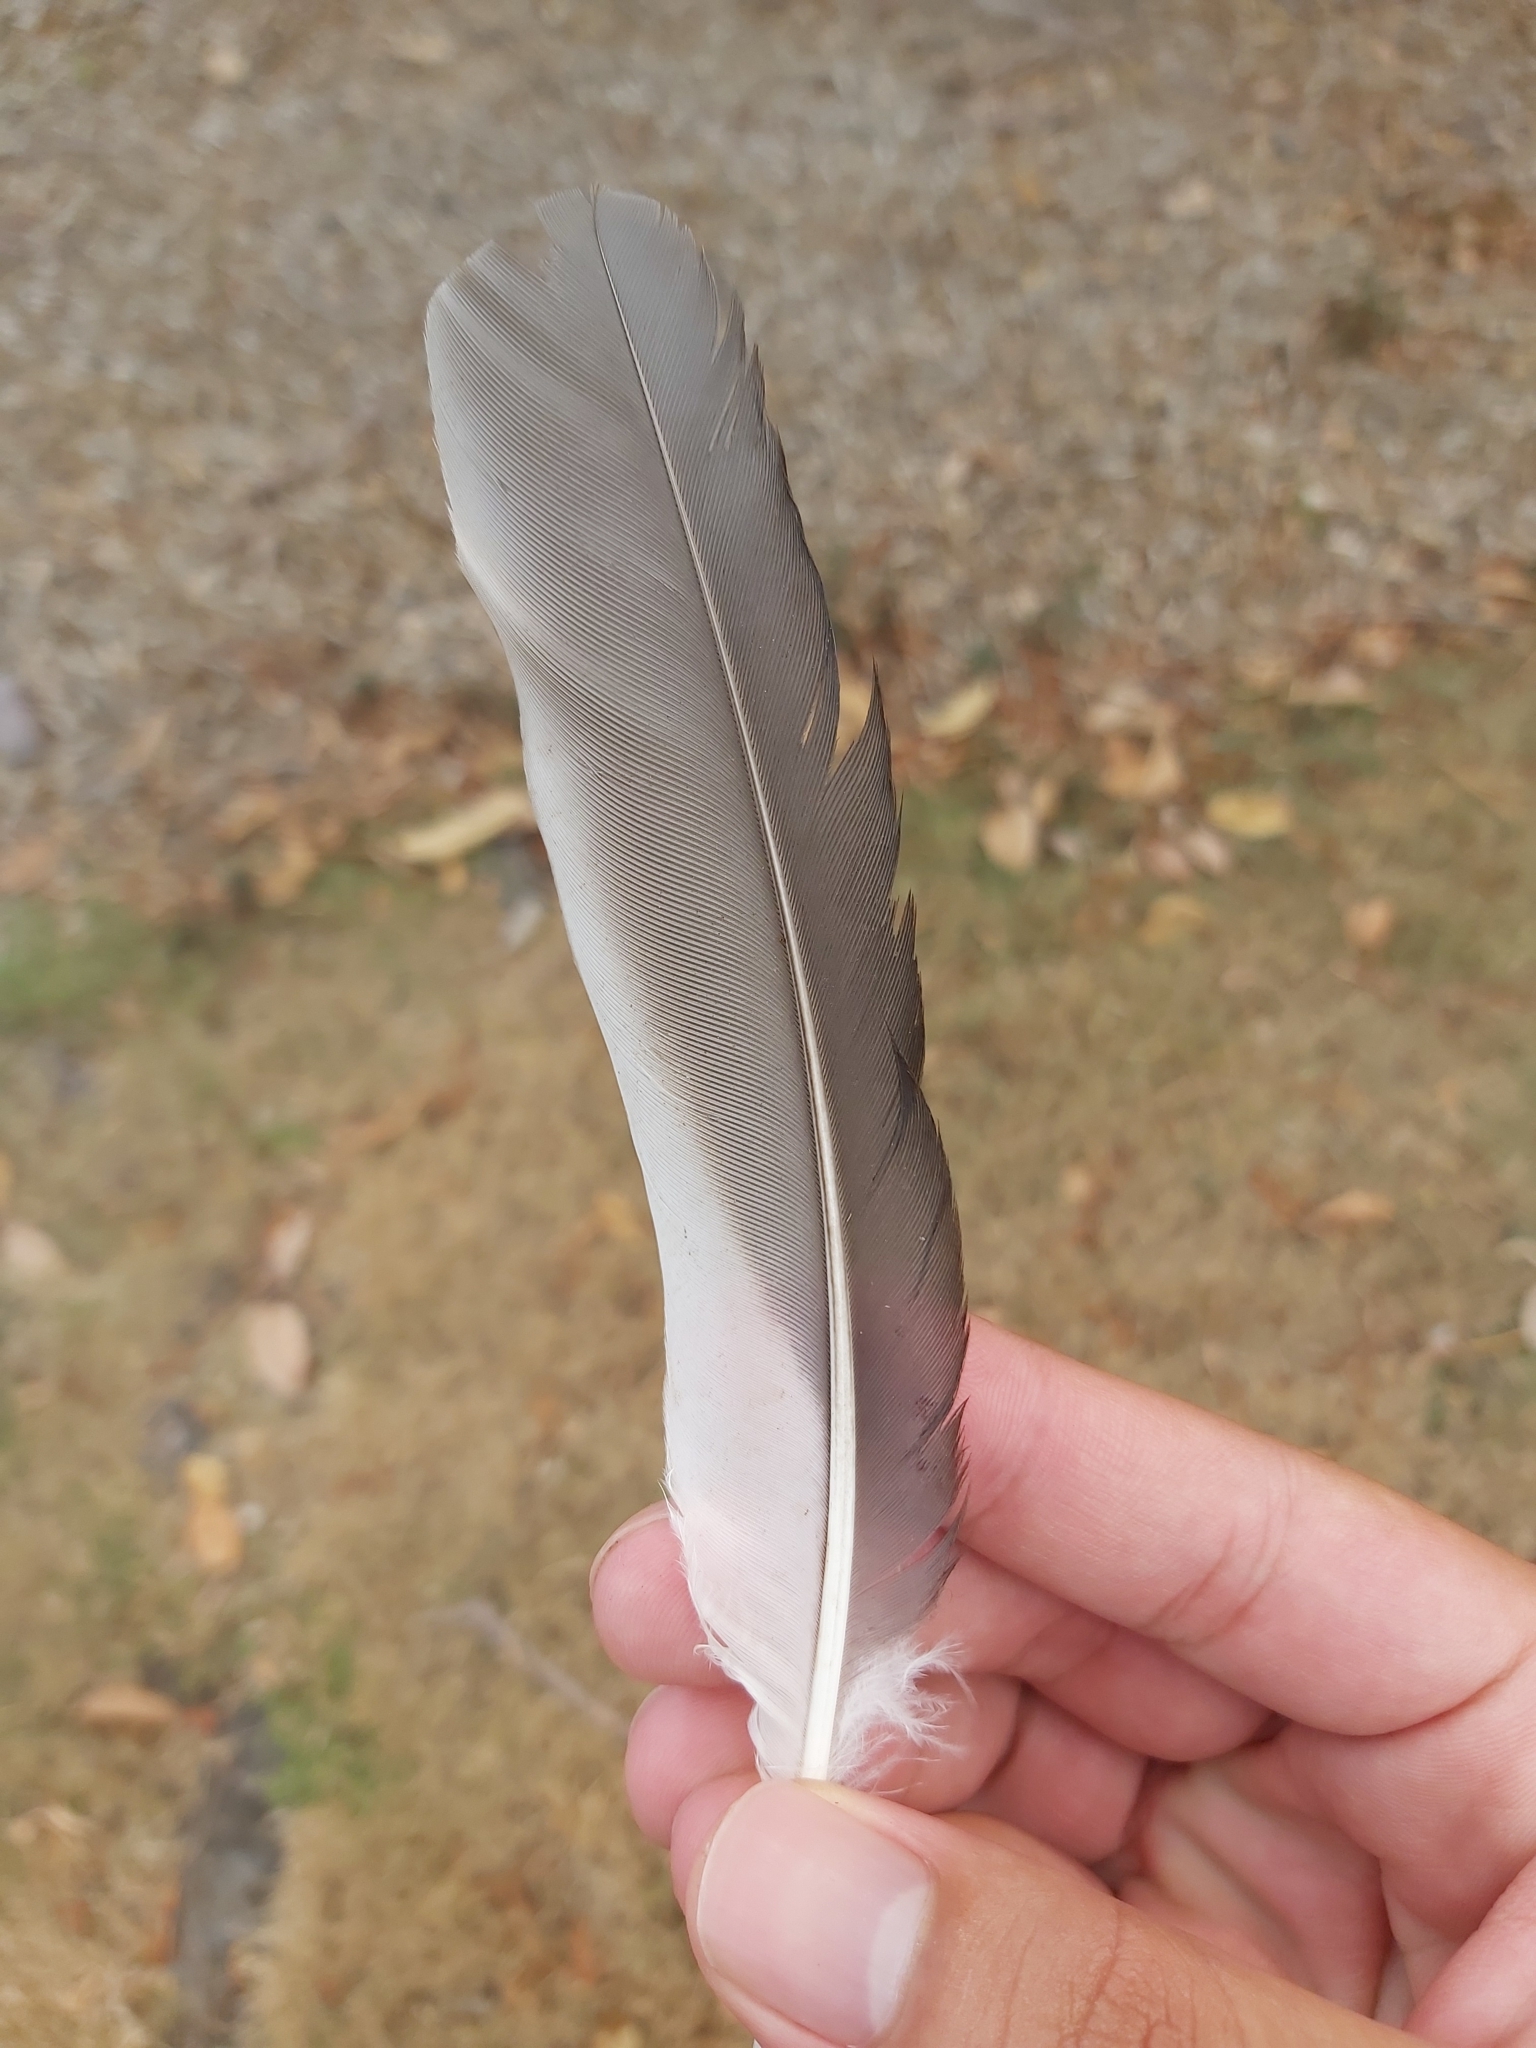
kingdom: Animalia
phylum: Chordata
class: Aves
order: Coraciiformes
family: Alcedinidae
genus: Dacelo
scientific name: Dacelo novaeguineae
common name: Laughing kookaburra
